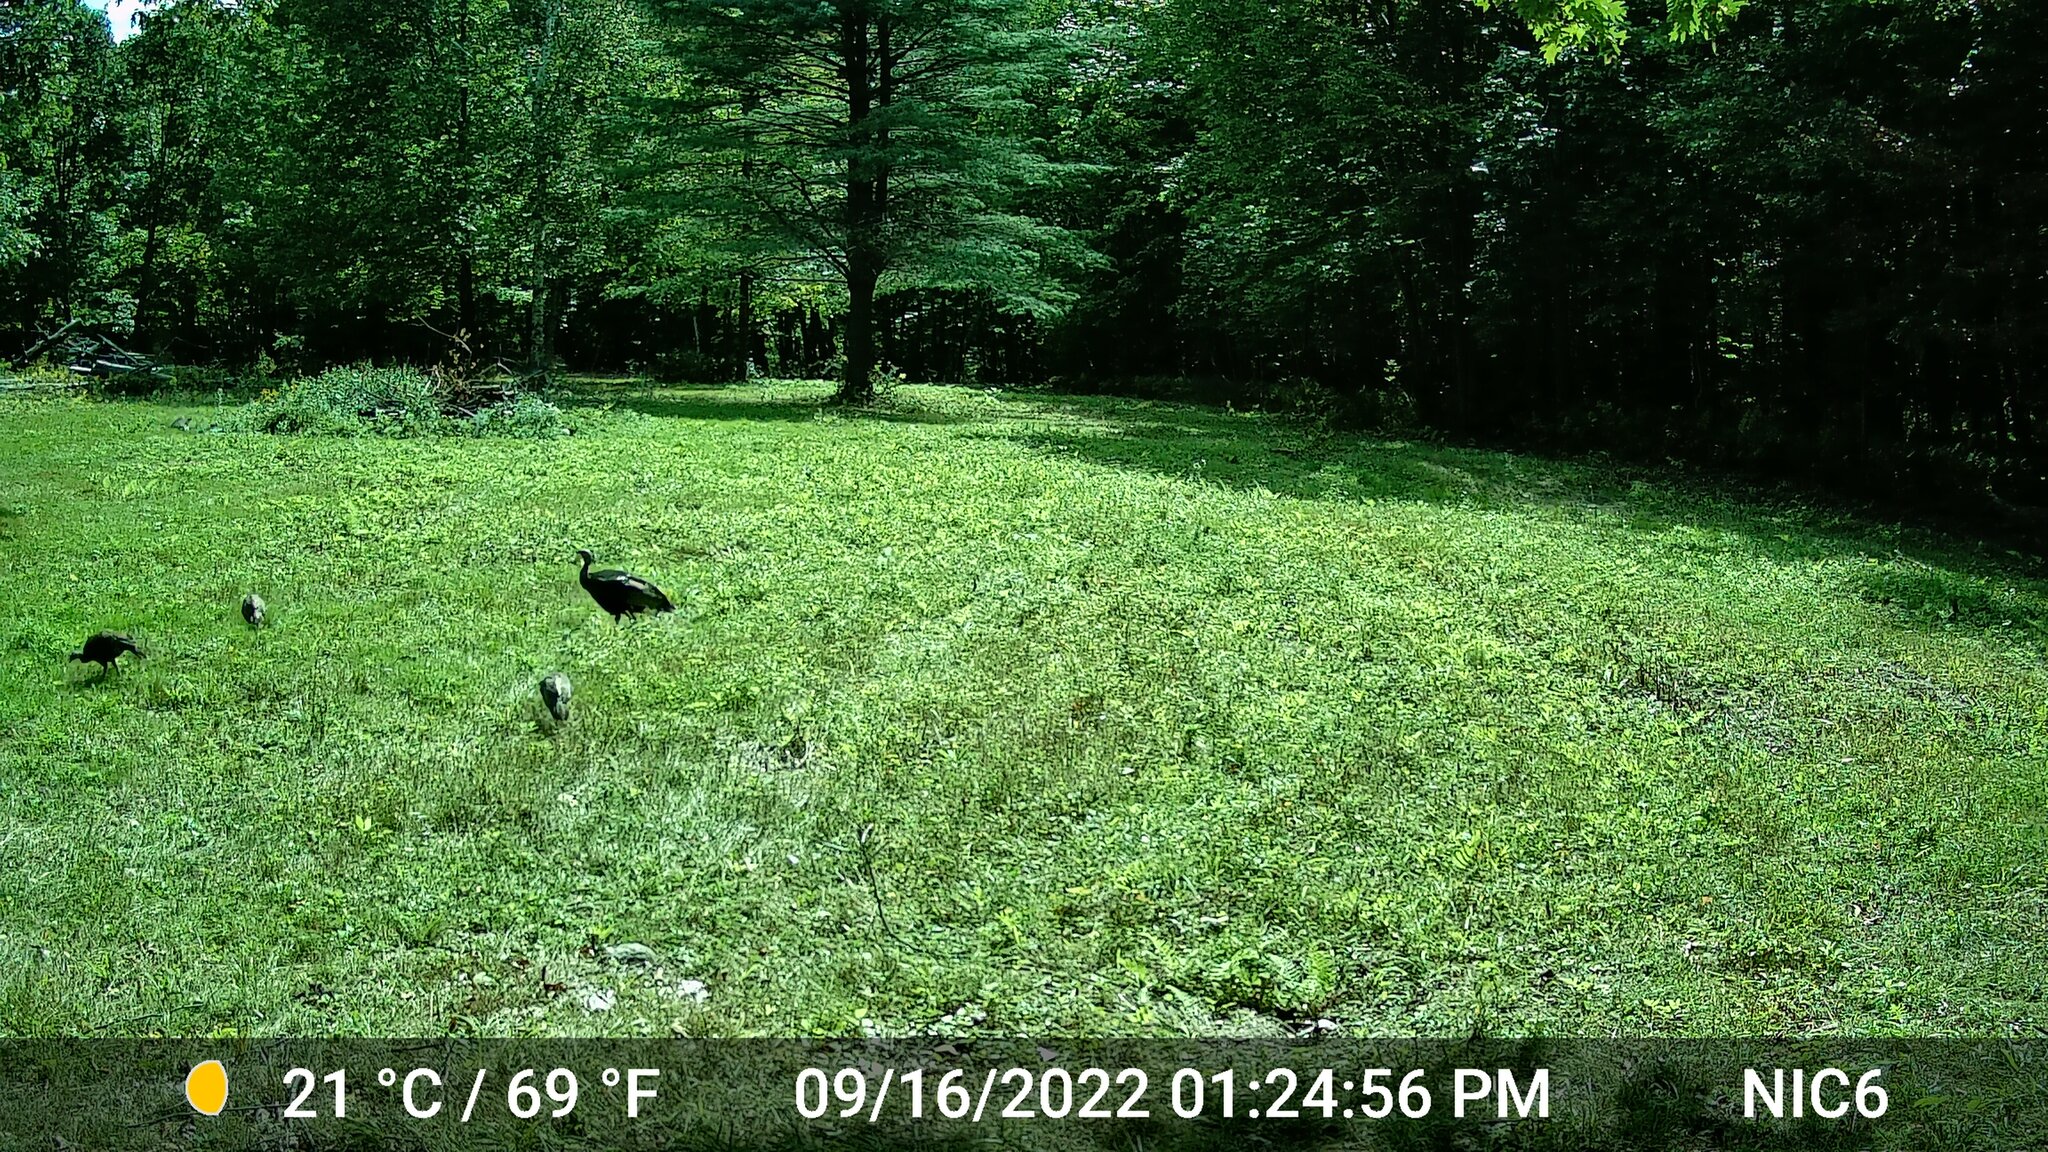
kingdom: Animalia
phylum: Chordata
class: Aves
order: Galliformes
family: Phasianidae
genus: Meleagris
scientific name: Meleagris gallopavo
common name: Wild turkey
